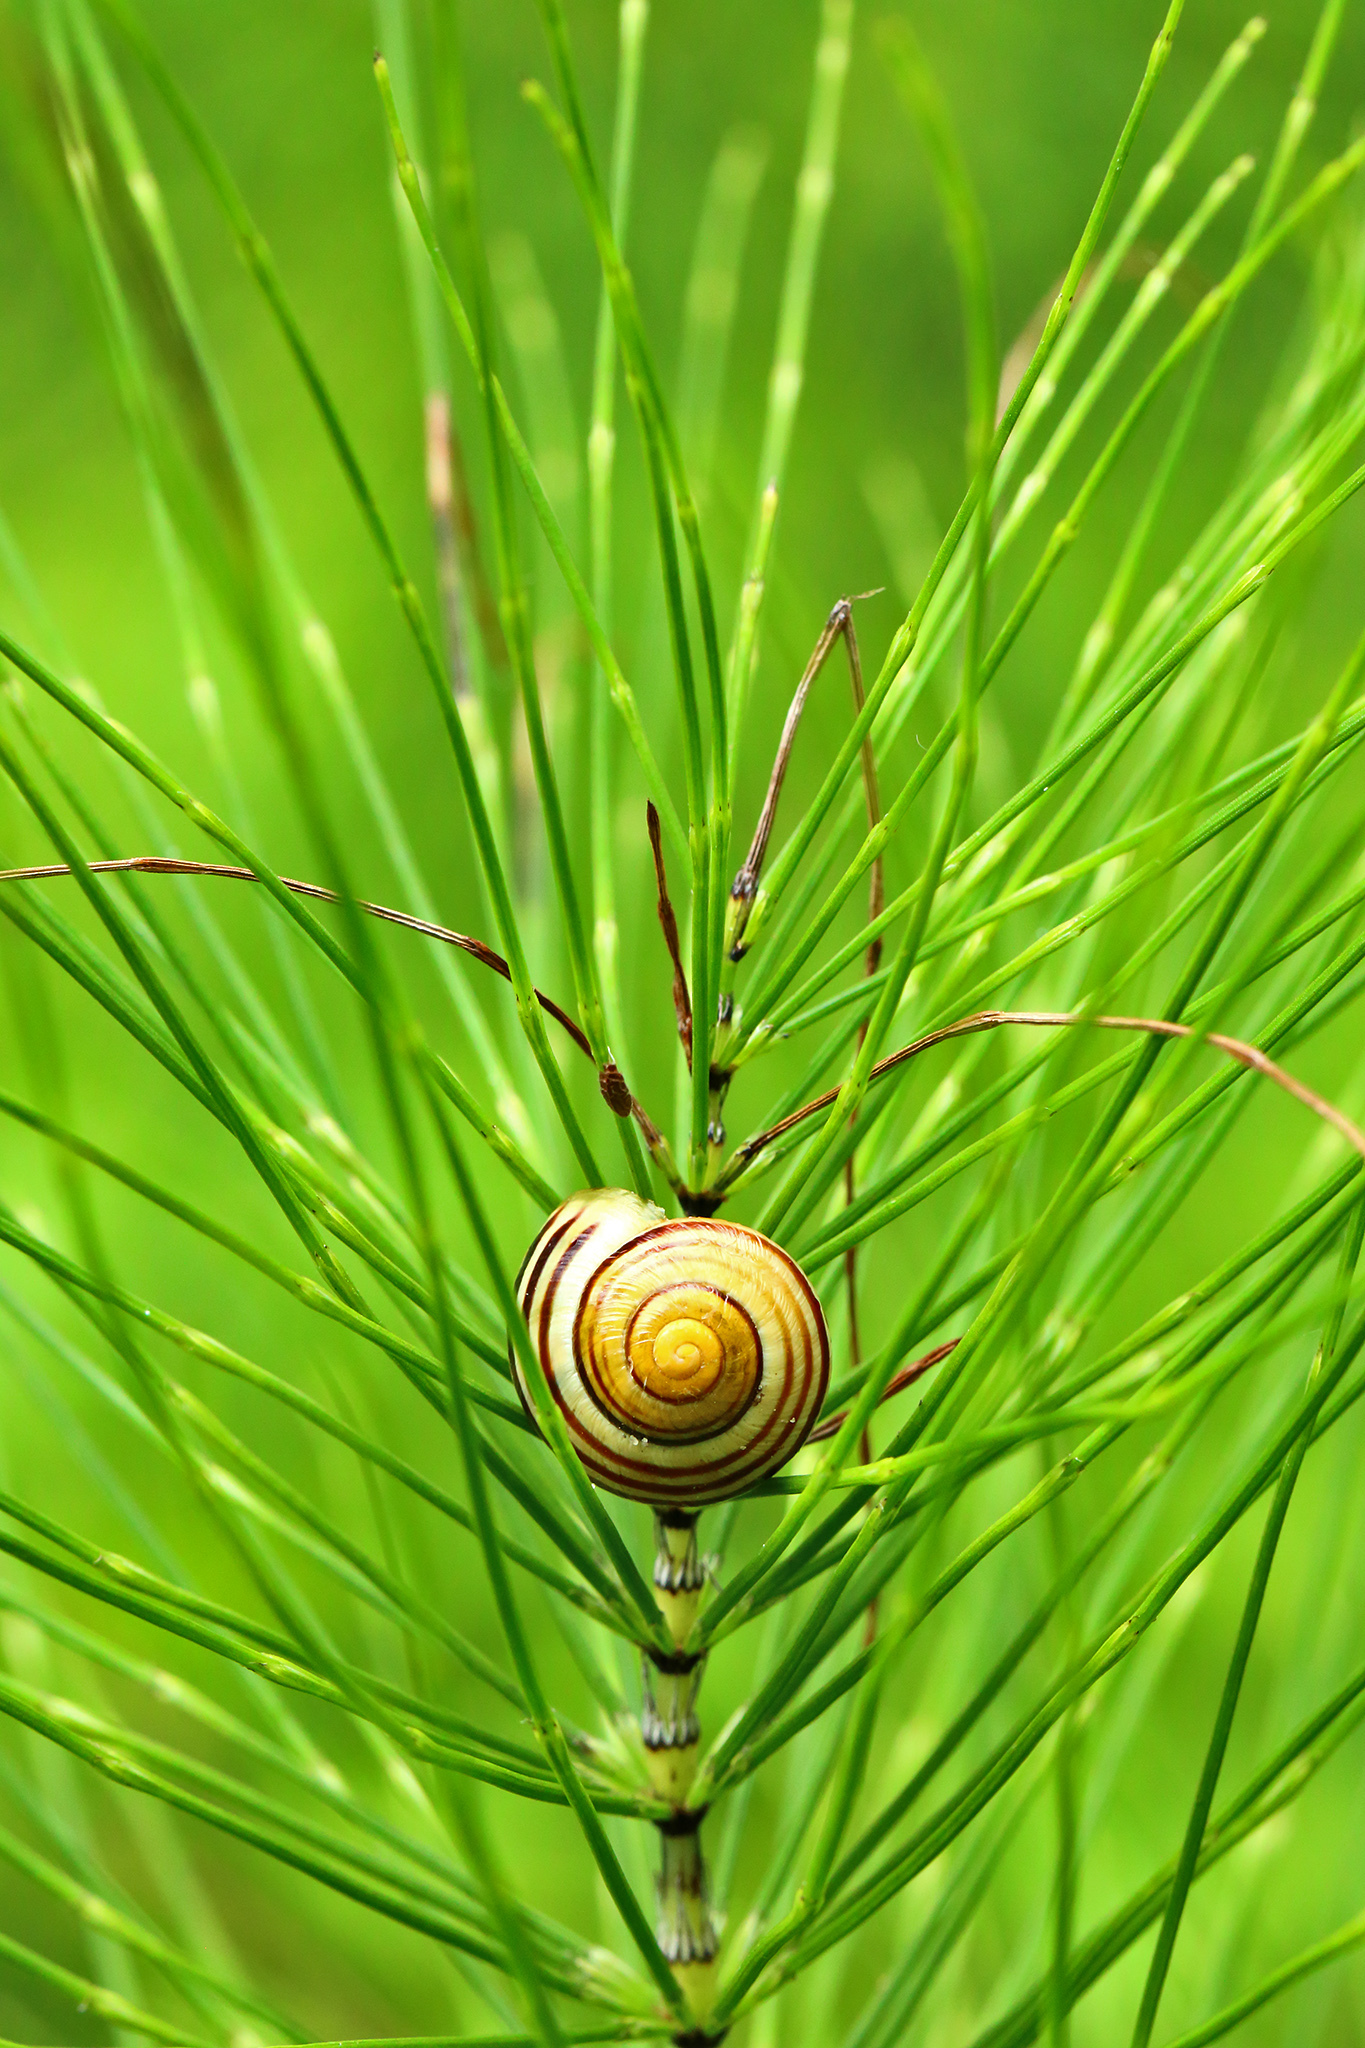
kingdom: Animalia
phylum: Mollusca
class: Gastropoda
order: Stylommatophora
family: Helicidae
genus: Cepaea
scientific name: Cepaea hortensis
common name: White-lip gardensnail
